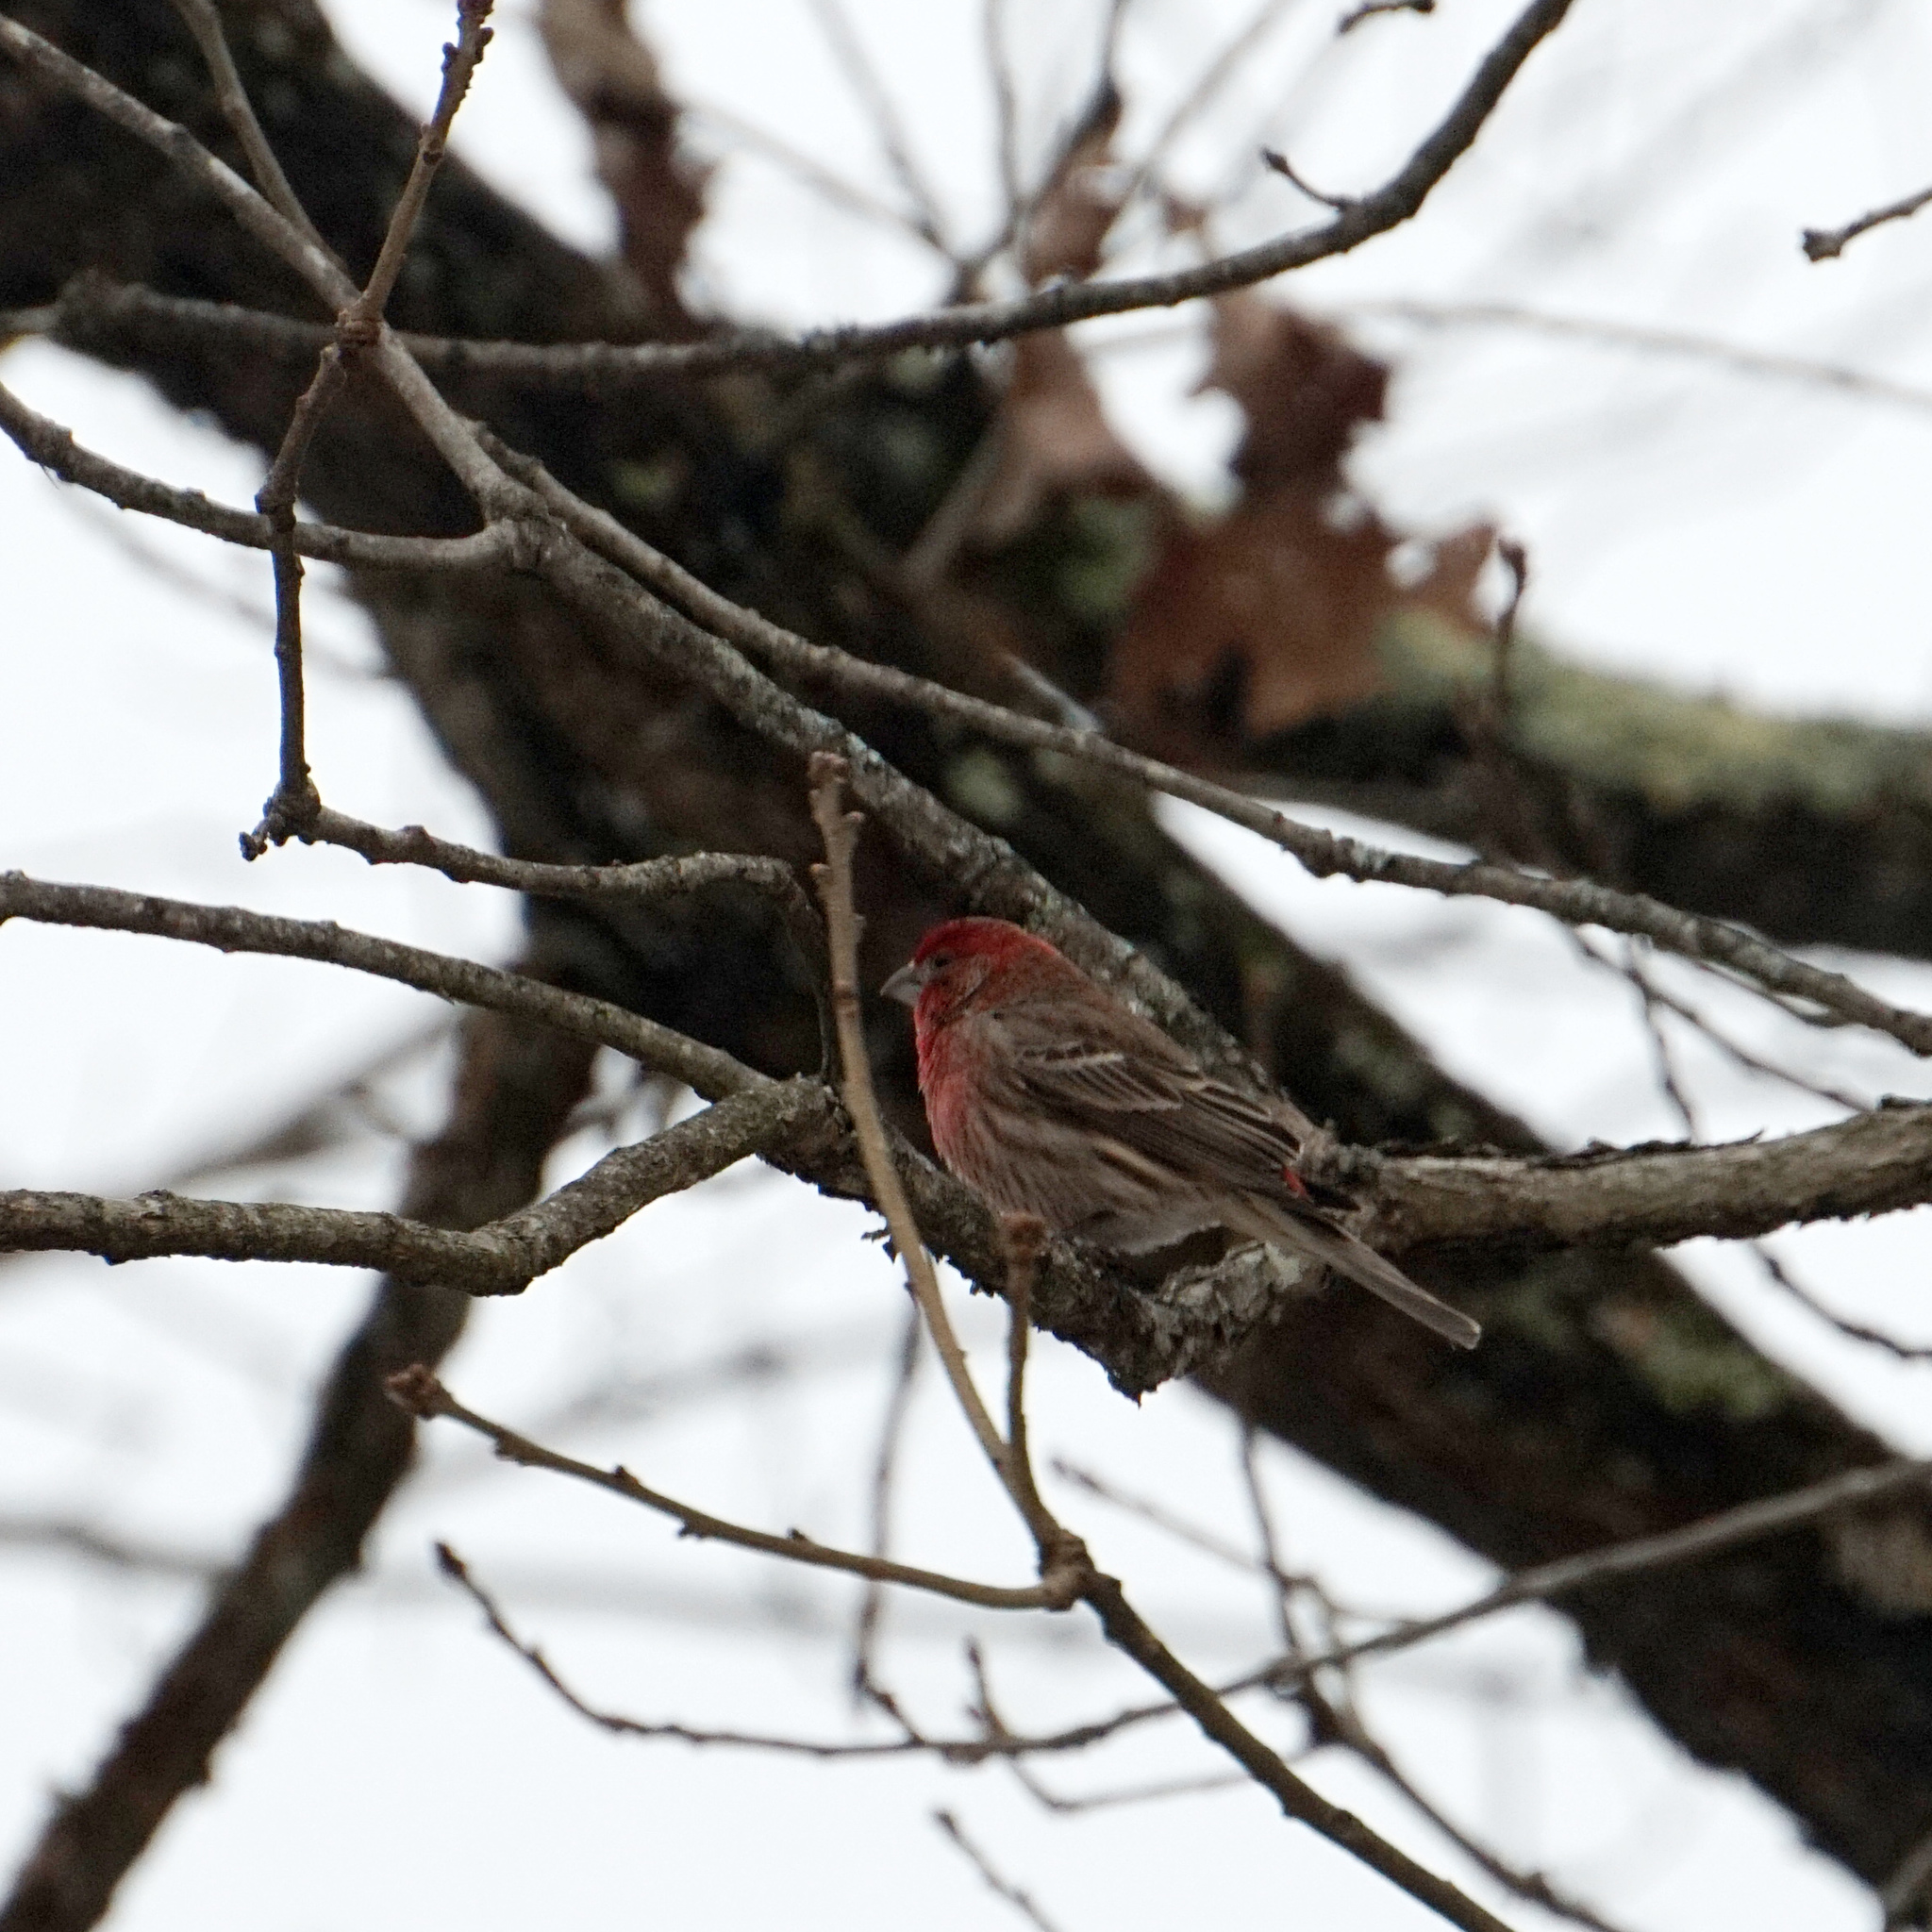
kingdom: Animalia
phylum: Chordata
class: Aves
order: Passeriformes
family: Fringillidae
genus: Haemorhous
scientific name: Haemorhous mexicanus
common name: House finch
